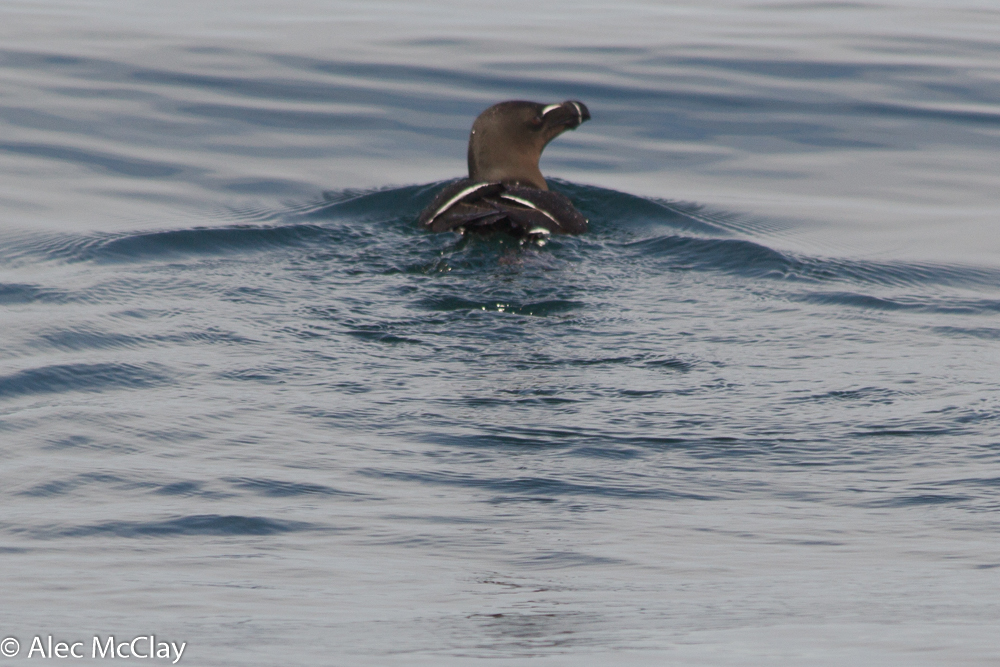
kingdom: Animalia
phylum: Chordata
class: Aves
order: Charadriiformes
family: Alcidae
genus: Alca
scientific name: Alca torda
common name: Razorbill
